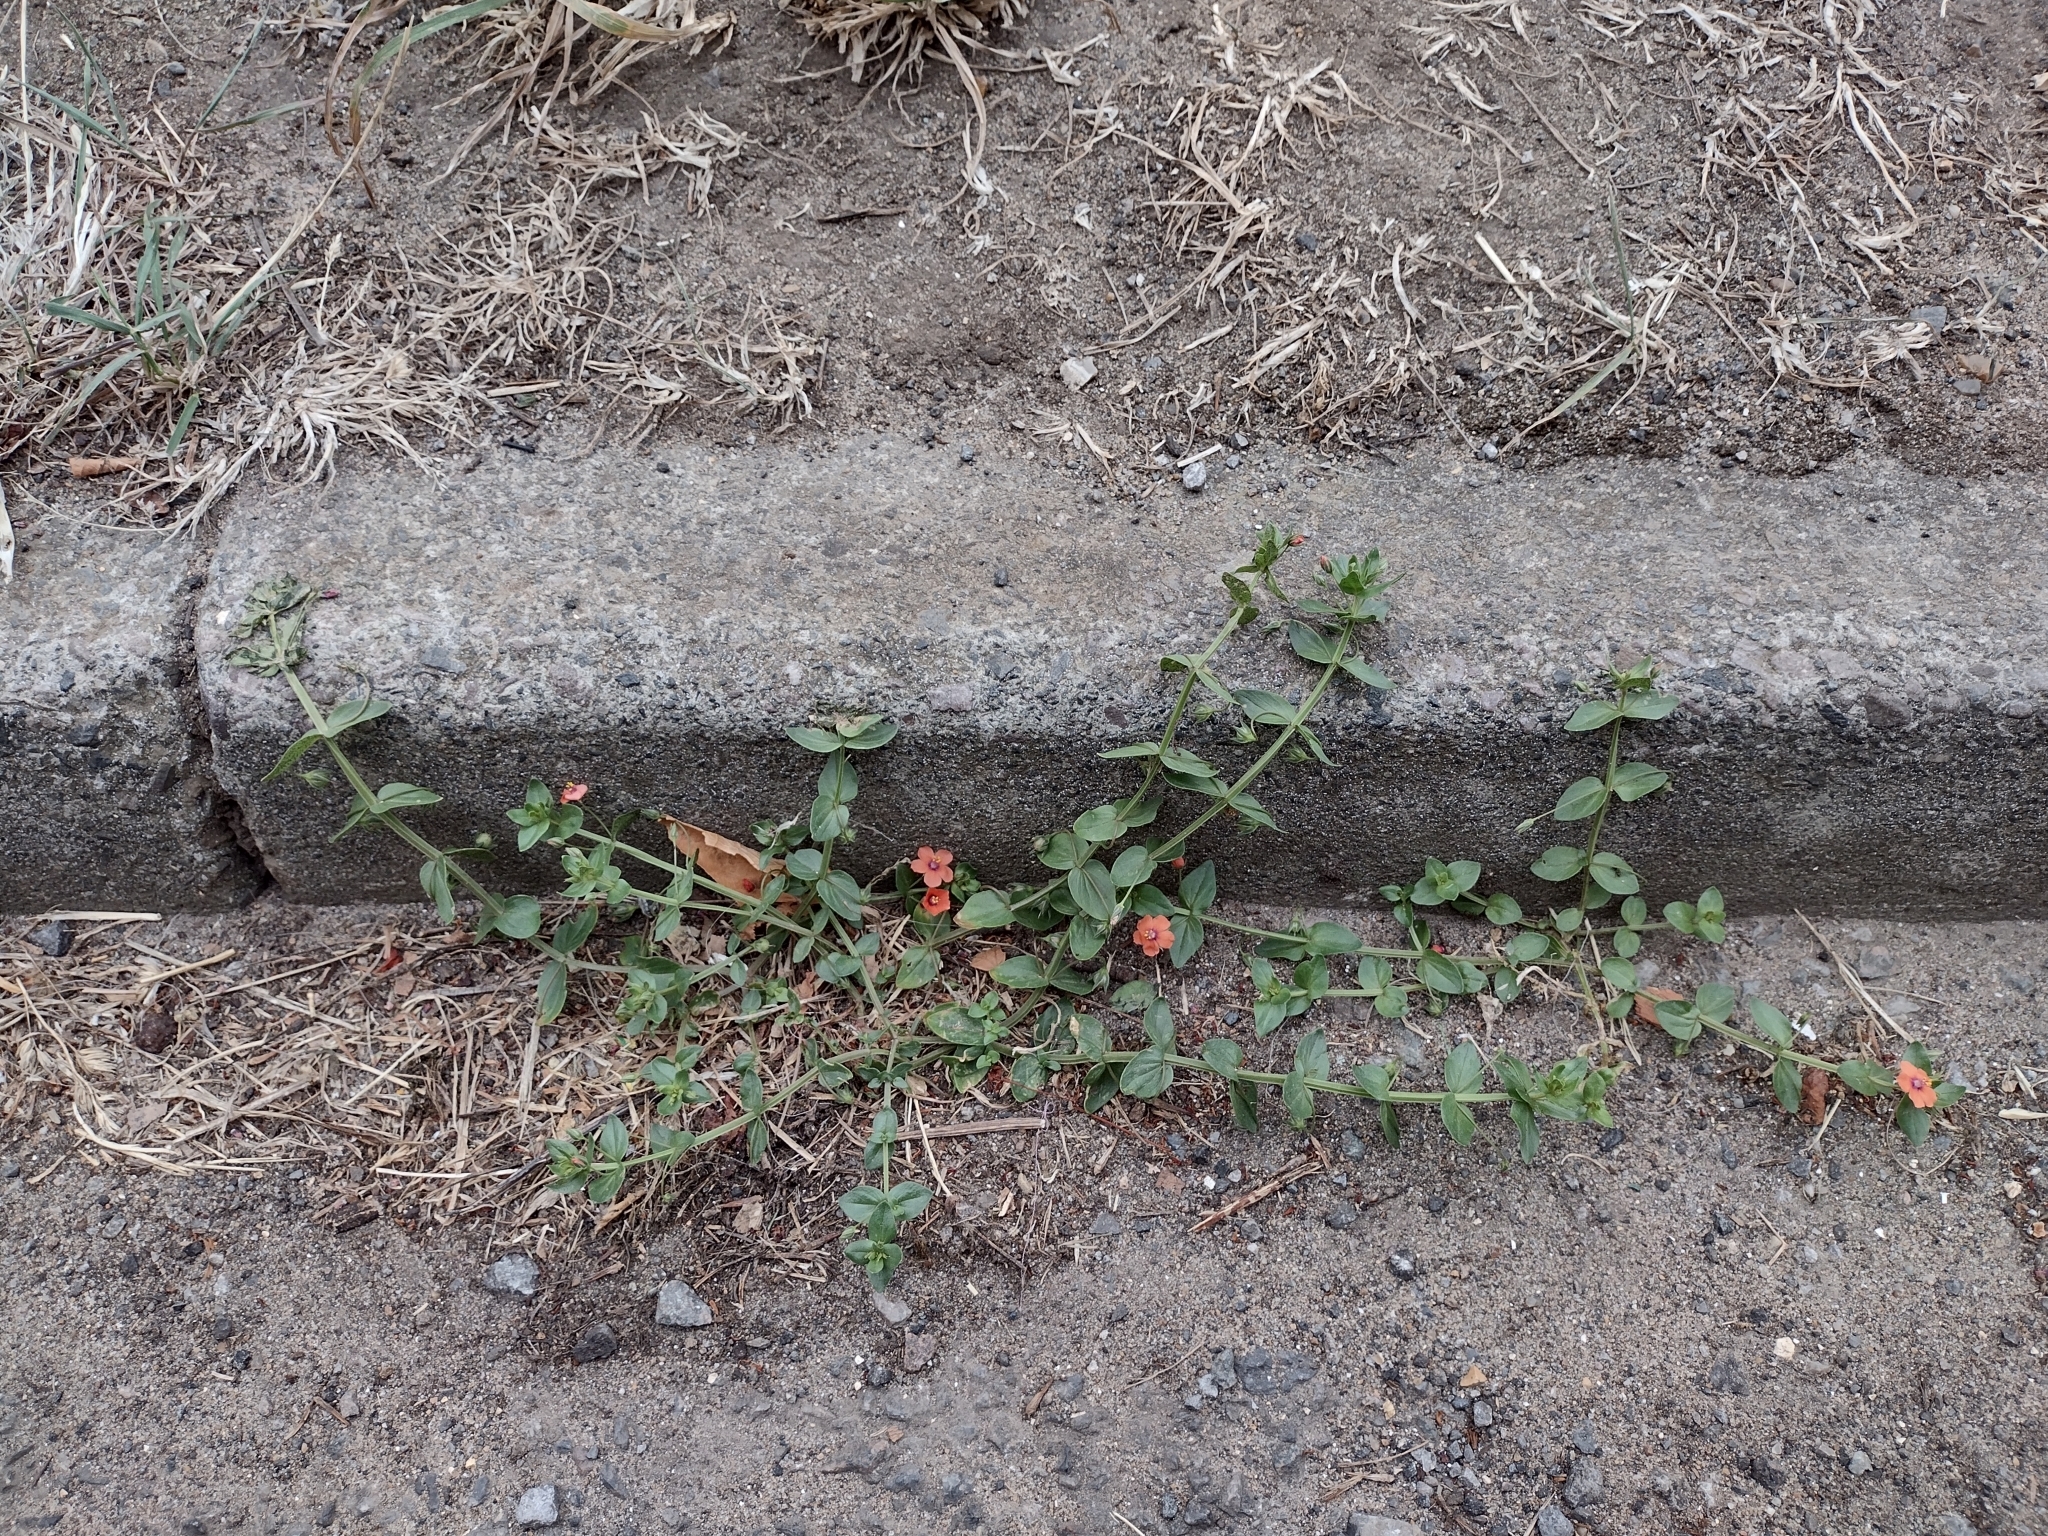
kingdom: Plantae
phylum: Tracheophyta
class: Magnoliopsida
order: Ericales
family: Primulaceae
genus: Lysimachia
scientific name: Lysimachia arvensis
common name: Scarlet pimpernel
